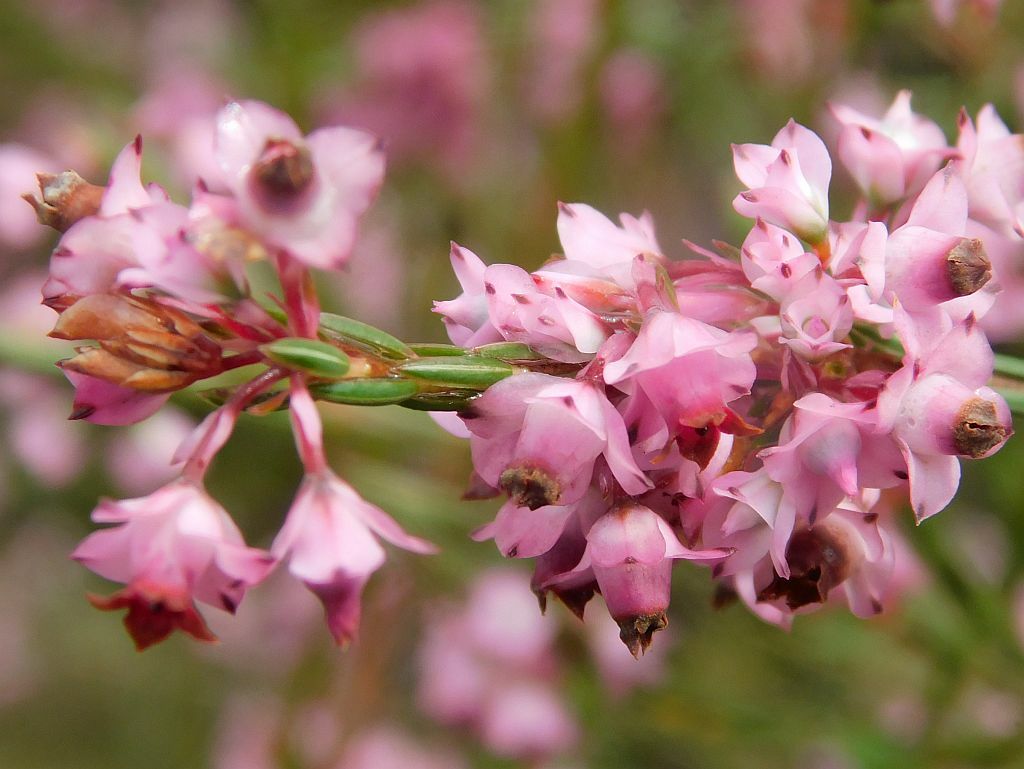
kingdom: Plantae
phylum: Tracheophyta
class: Magnoliopsida
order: Ericales
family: Ericaceae
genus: Erica
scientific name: Erica corifolia
